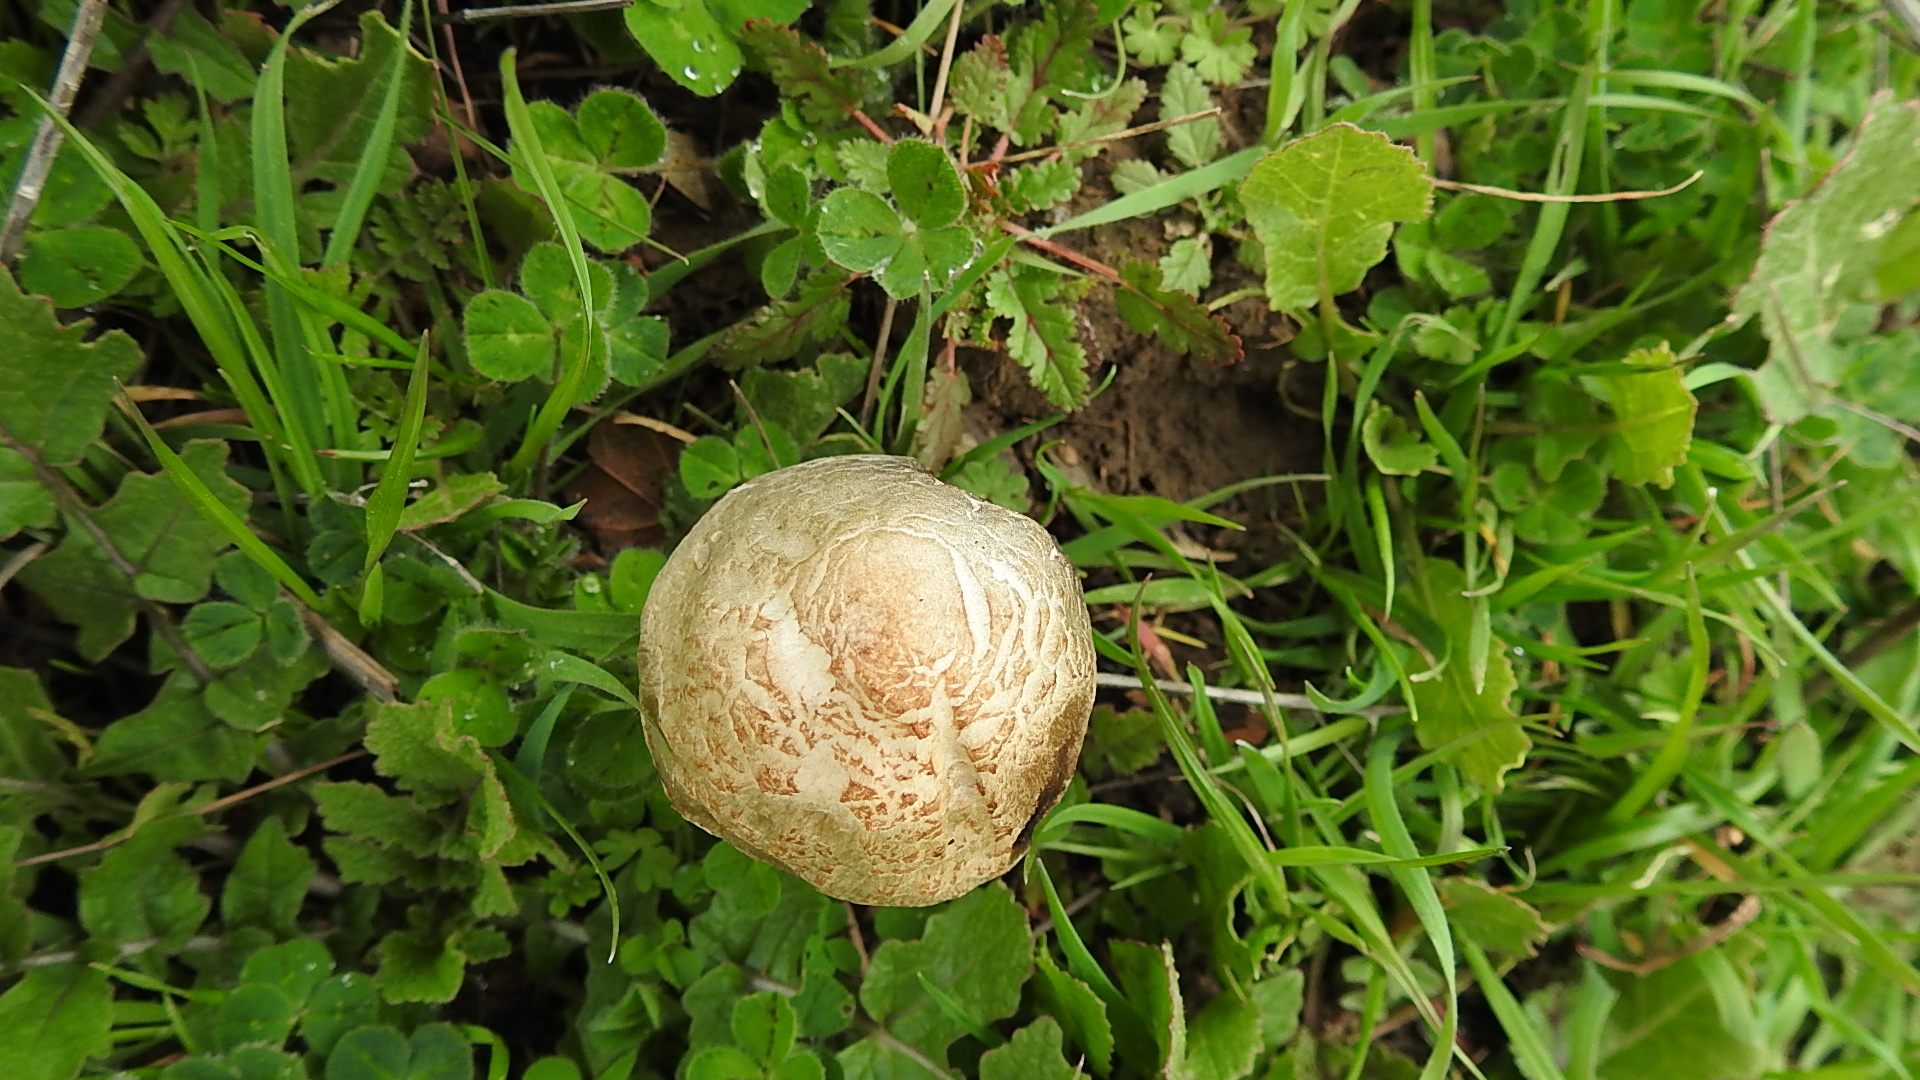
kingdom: Fungi
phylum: Basidiomycota
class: Agaricomycetes
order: Agaricales
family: Bolbitiaceae
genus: Panaeolus
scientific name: Panaeolus papilionaceus
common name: Petticoat mottlegill
